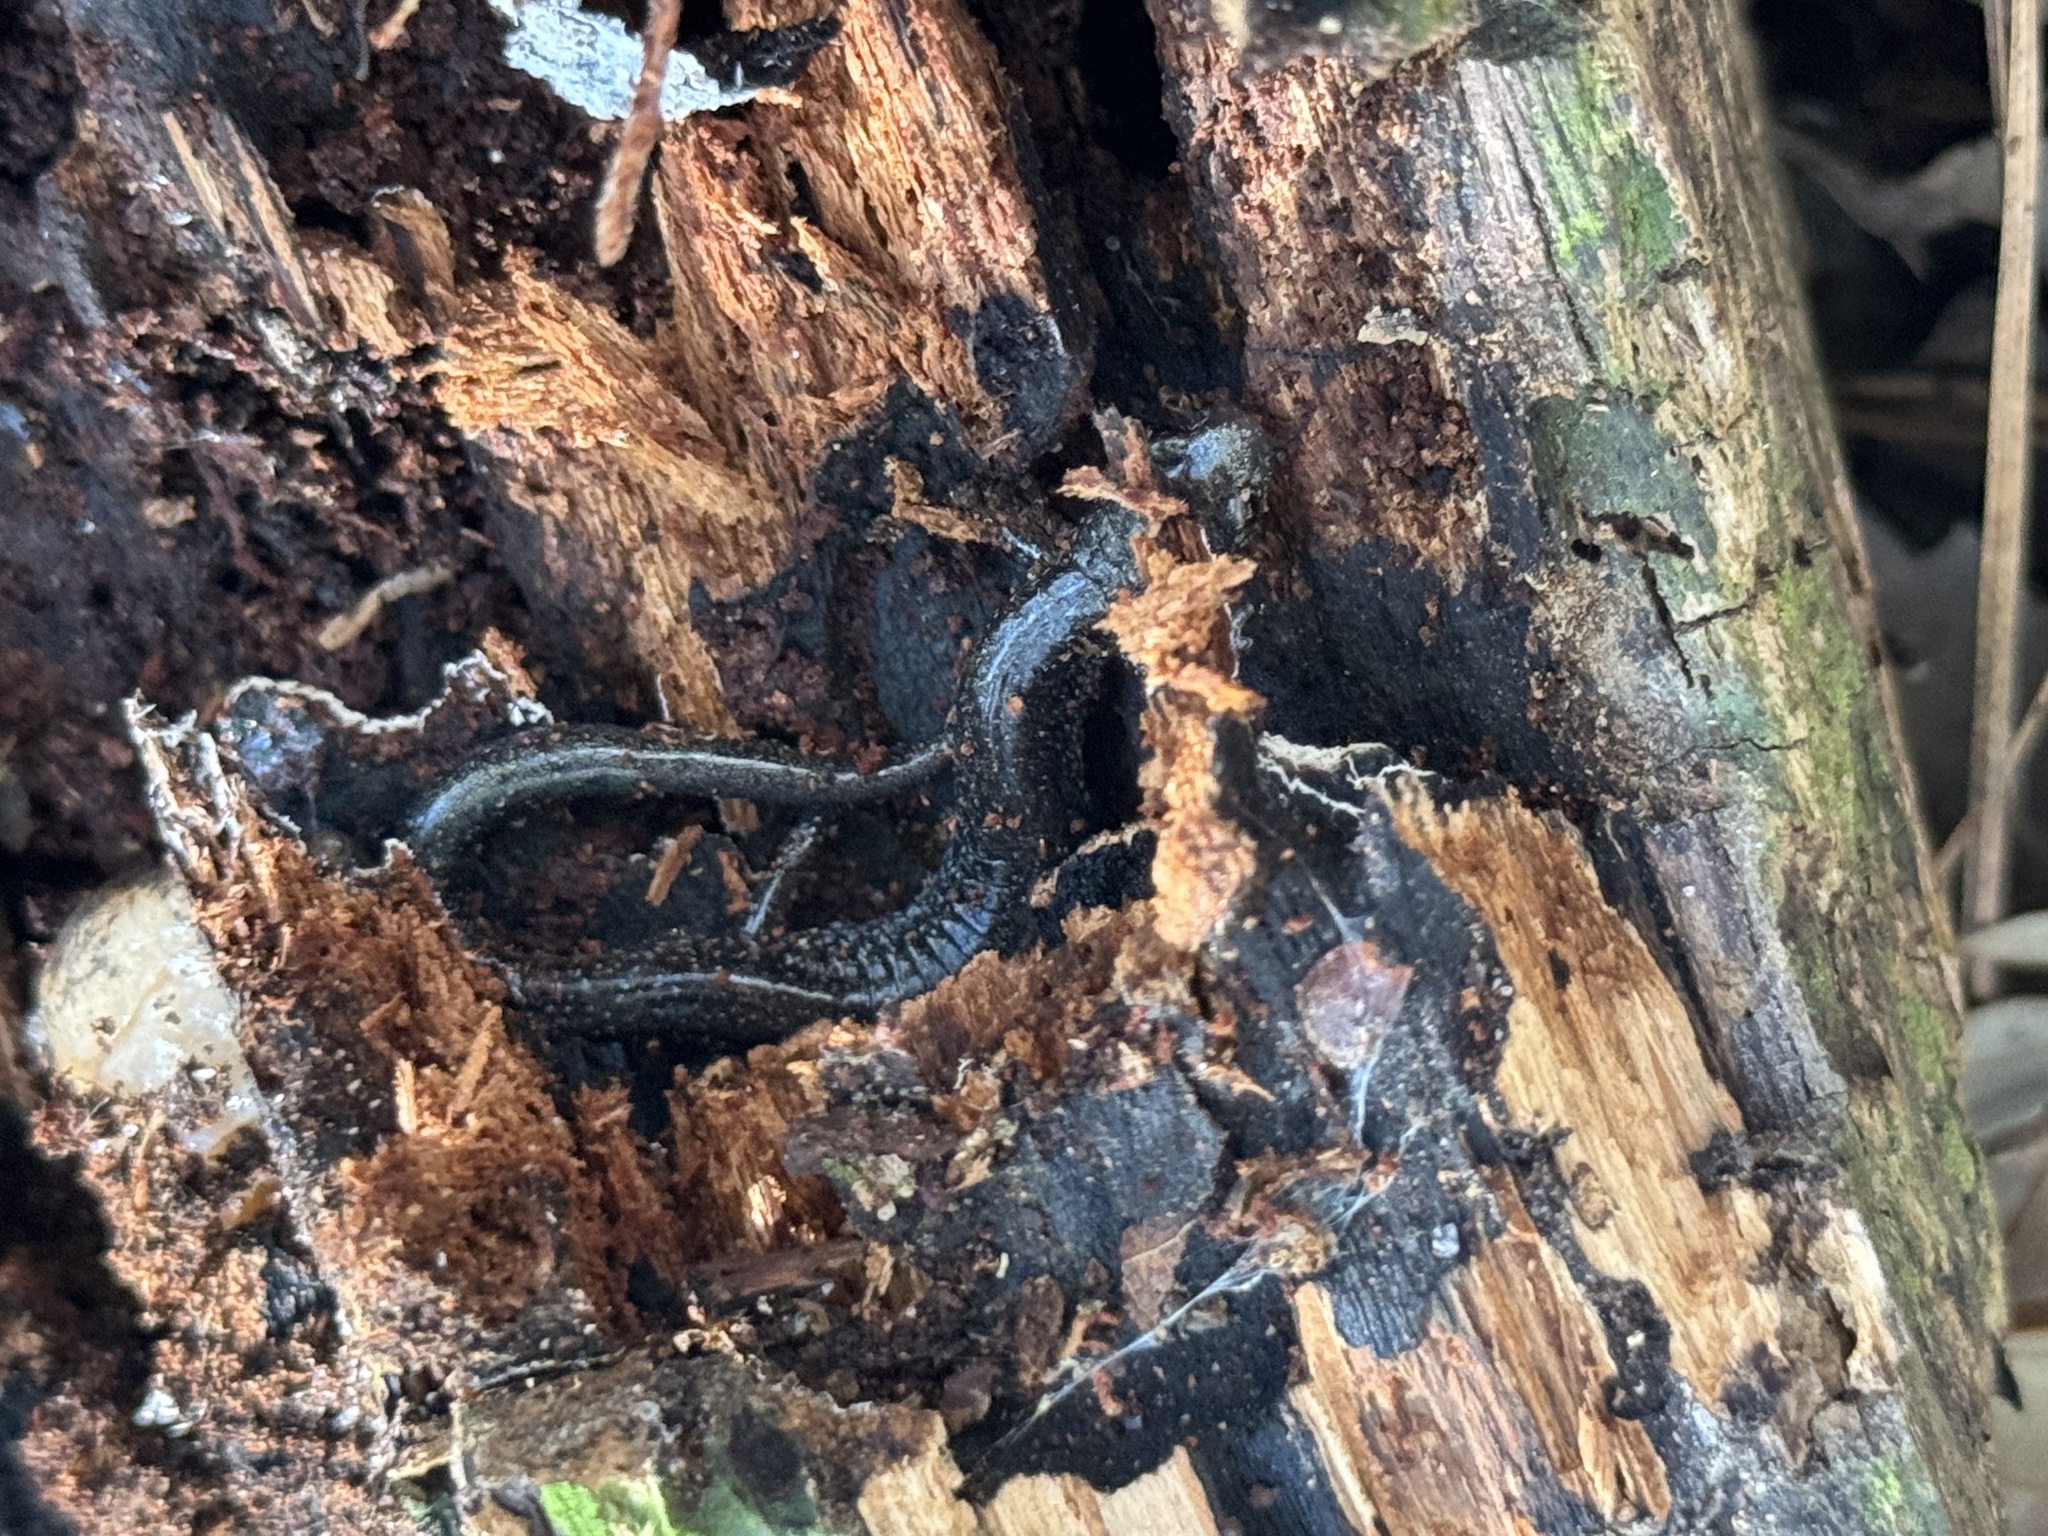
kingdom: Animalia
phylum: Chordata
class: Amphibia
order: Caudata
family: Plethodontidae
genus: Plethodon
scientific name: Plethodon cinereus
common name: Redback salamander
